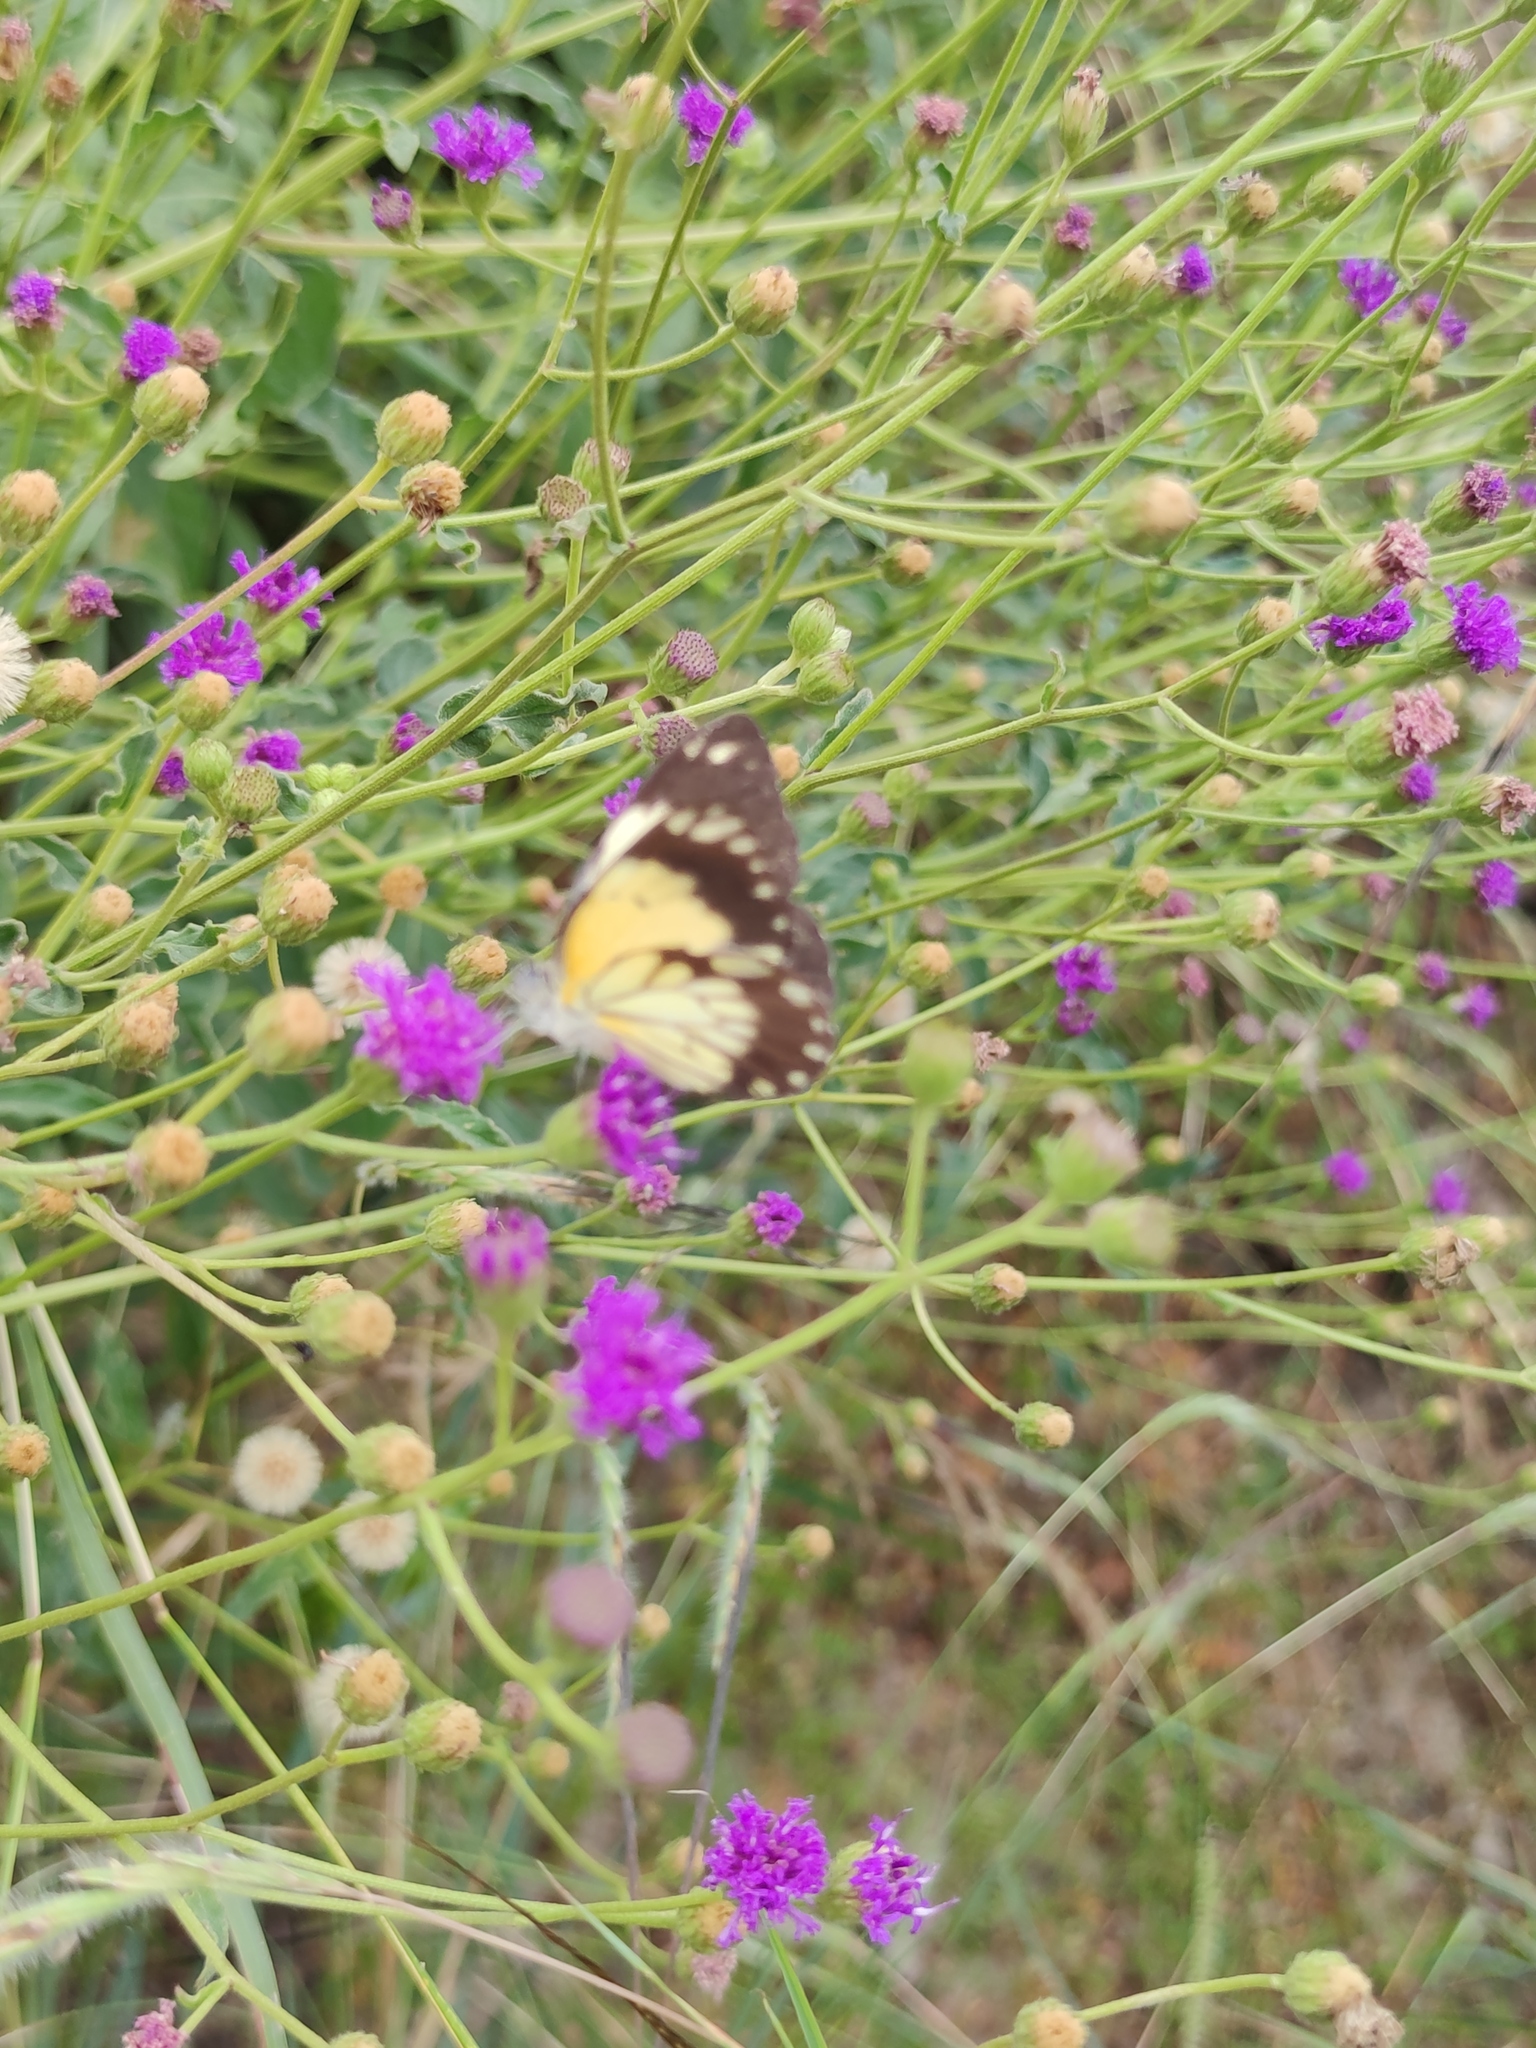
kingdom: Animalia
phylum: Arthropoda
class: Insecta
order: Lepidoptera
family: Pieridae
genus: Belenois
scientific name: Belenois creona
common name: African caper white
